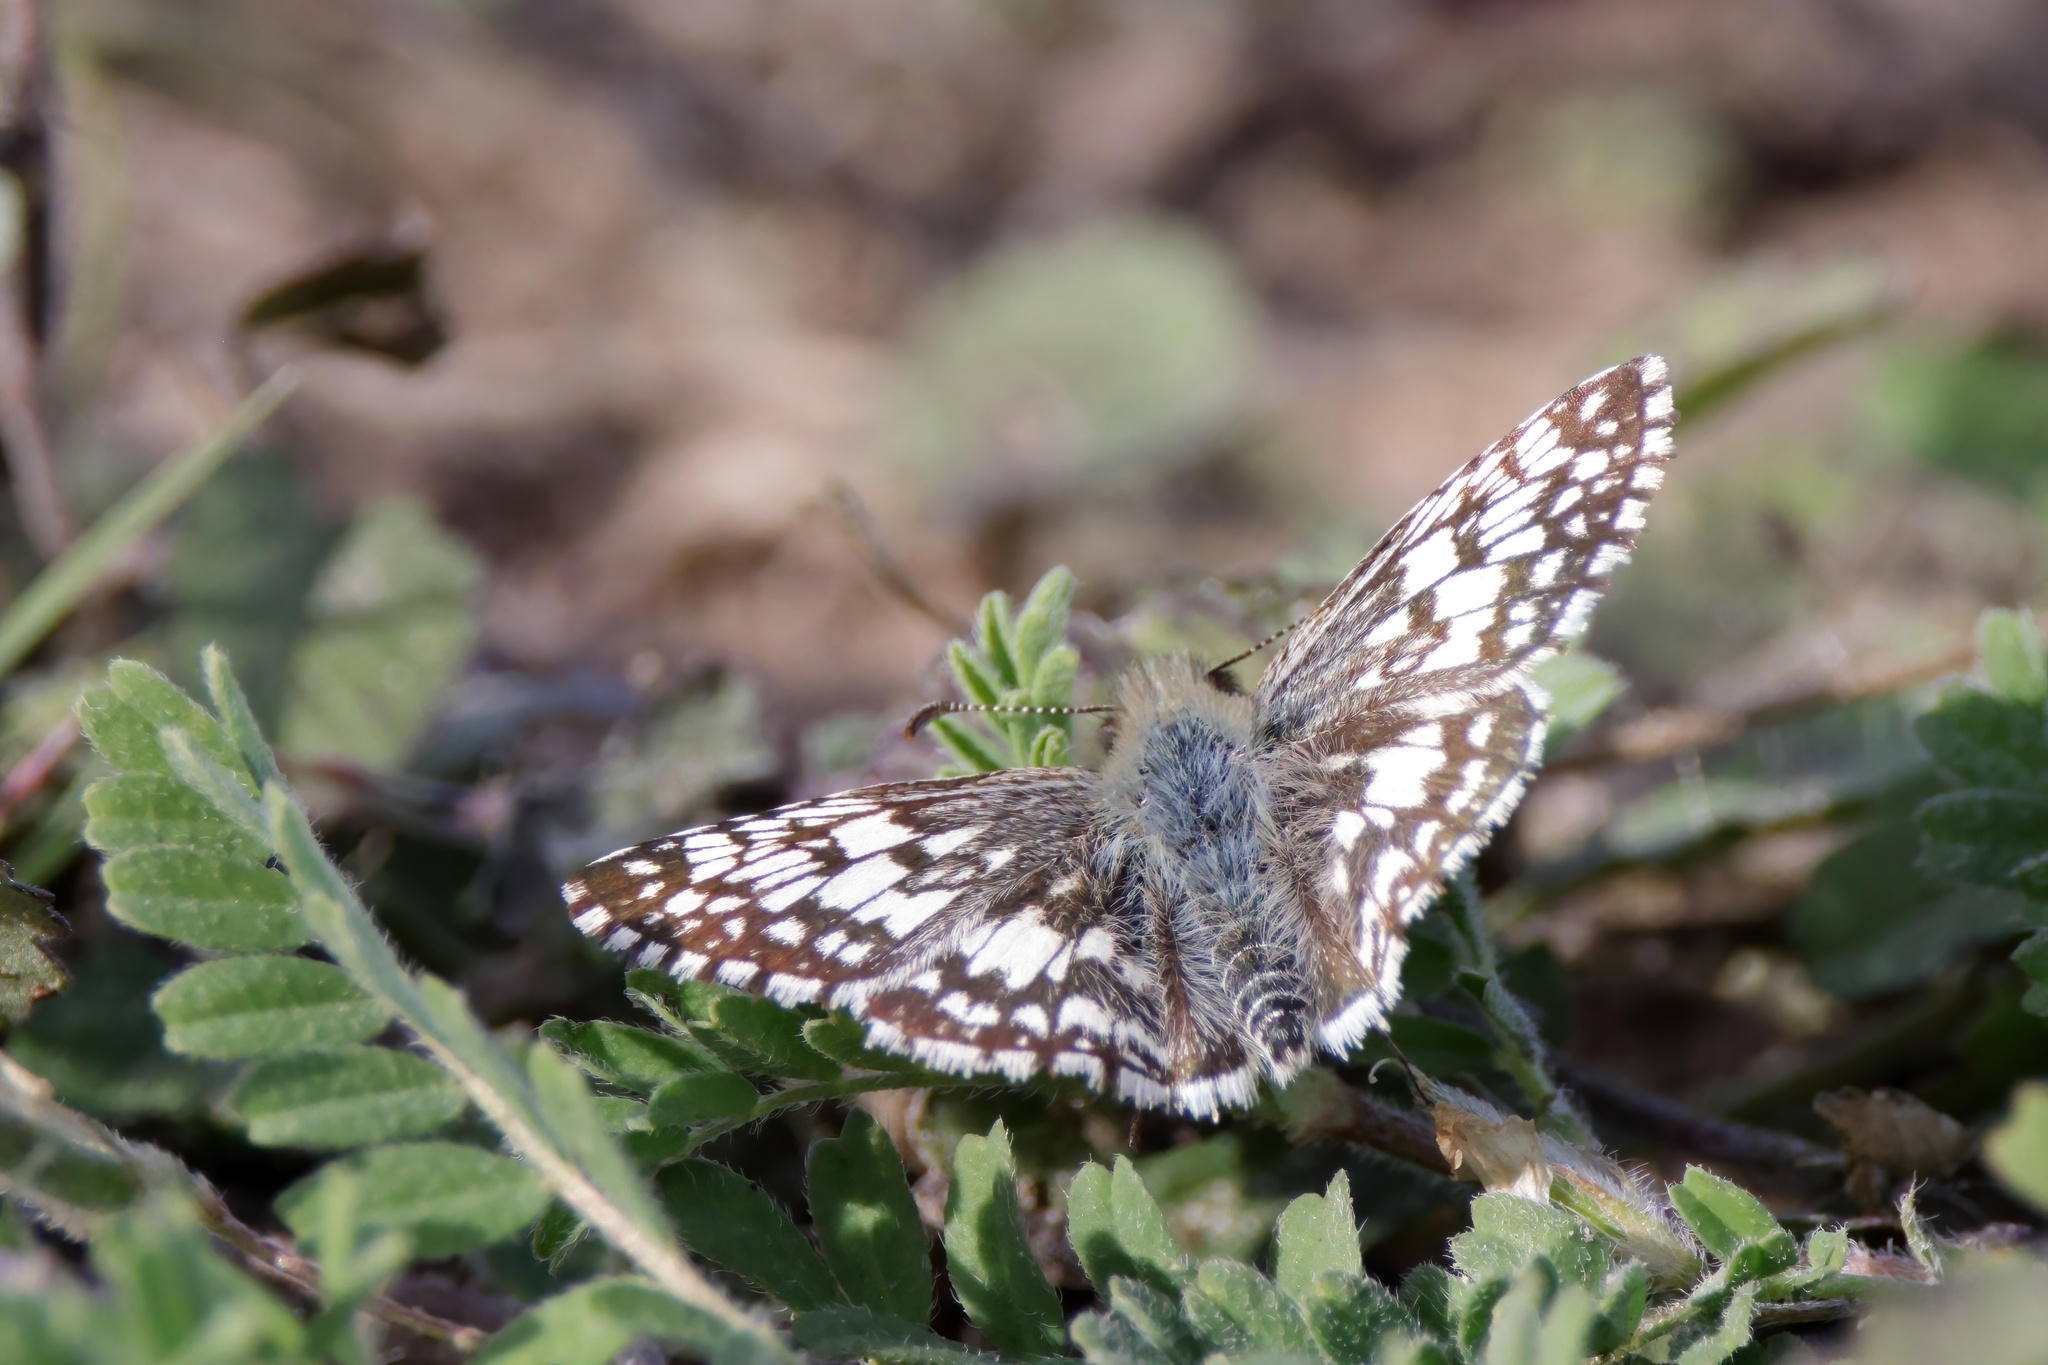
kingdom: Animalia
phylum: Arthropoda
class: Insecta
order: Lepidoptera
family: Hesperiidae
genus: Burnsius
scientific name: Burnsius albezens
